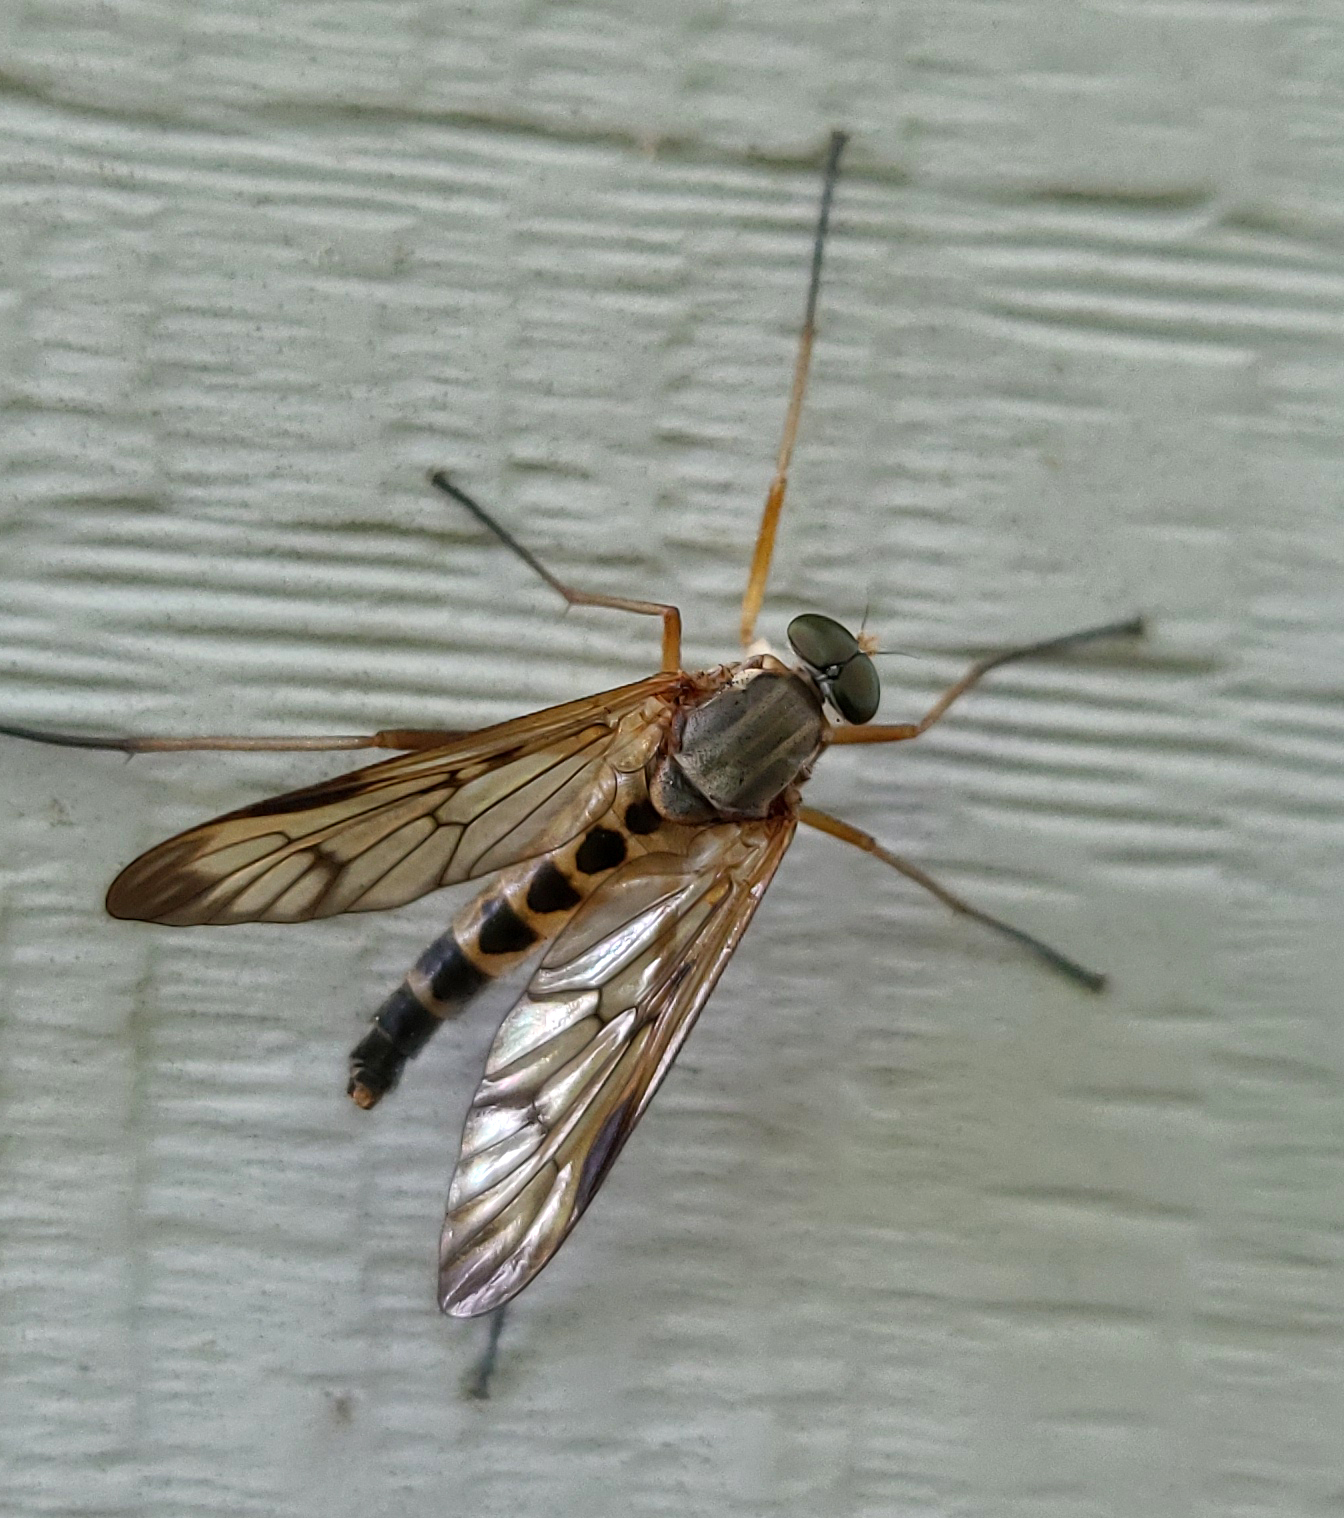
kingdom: Animalia
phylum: Arthropoda
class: Insecta
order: Diptera
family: Rhagionidae
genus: Rhagio
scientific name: Rhagio scolopacea
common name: Downlooker snipefly
